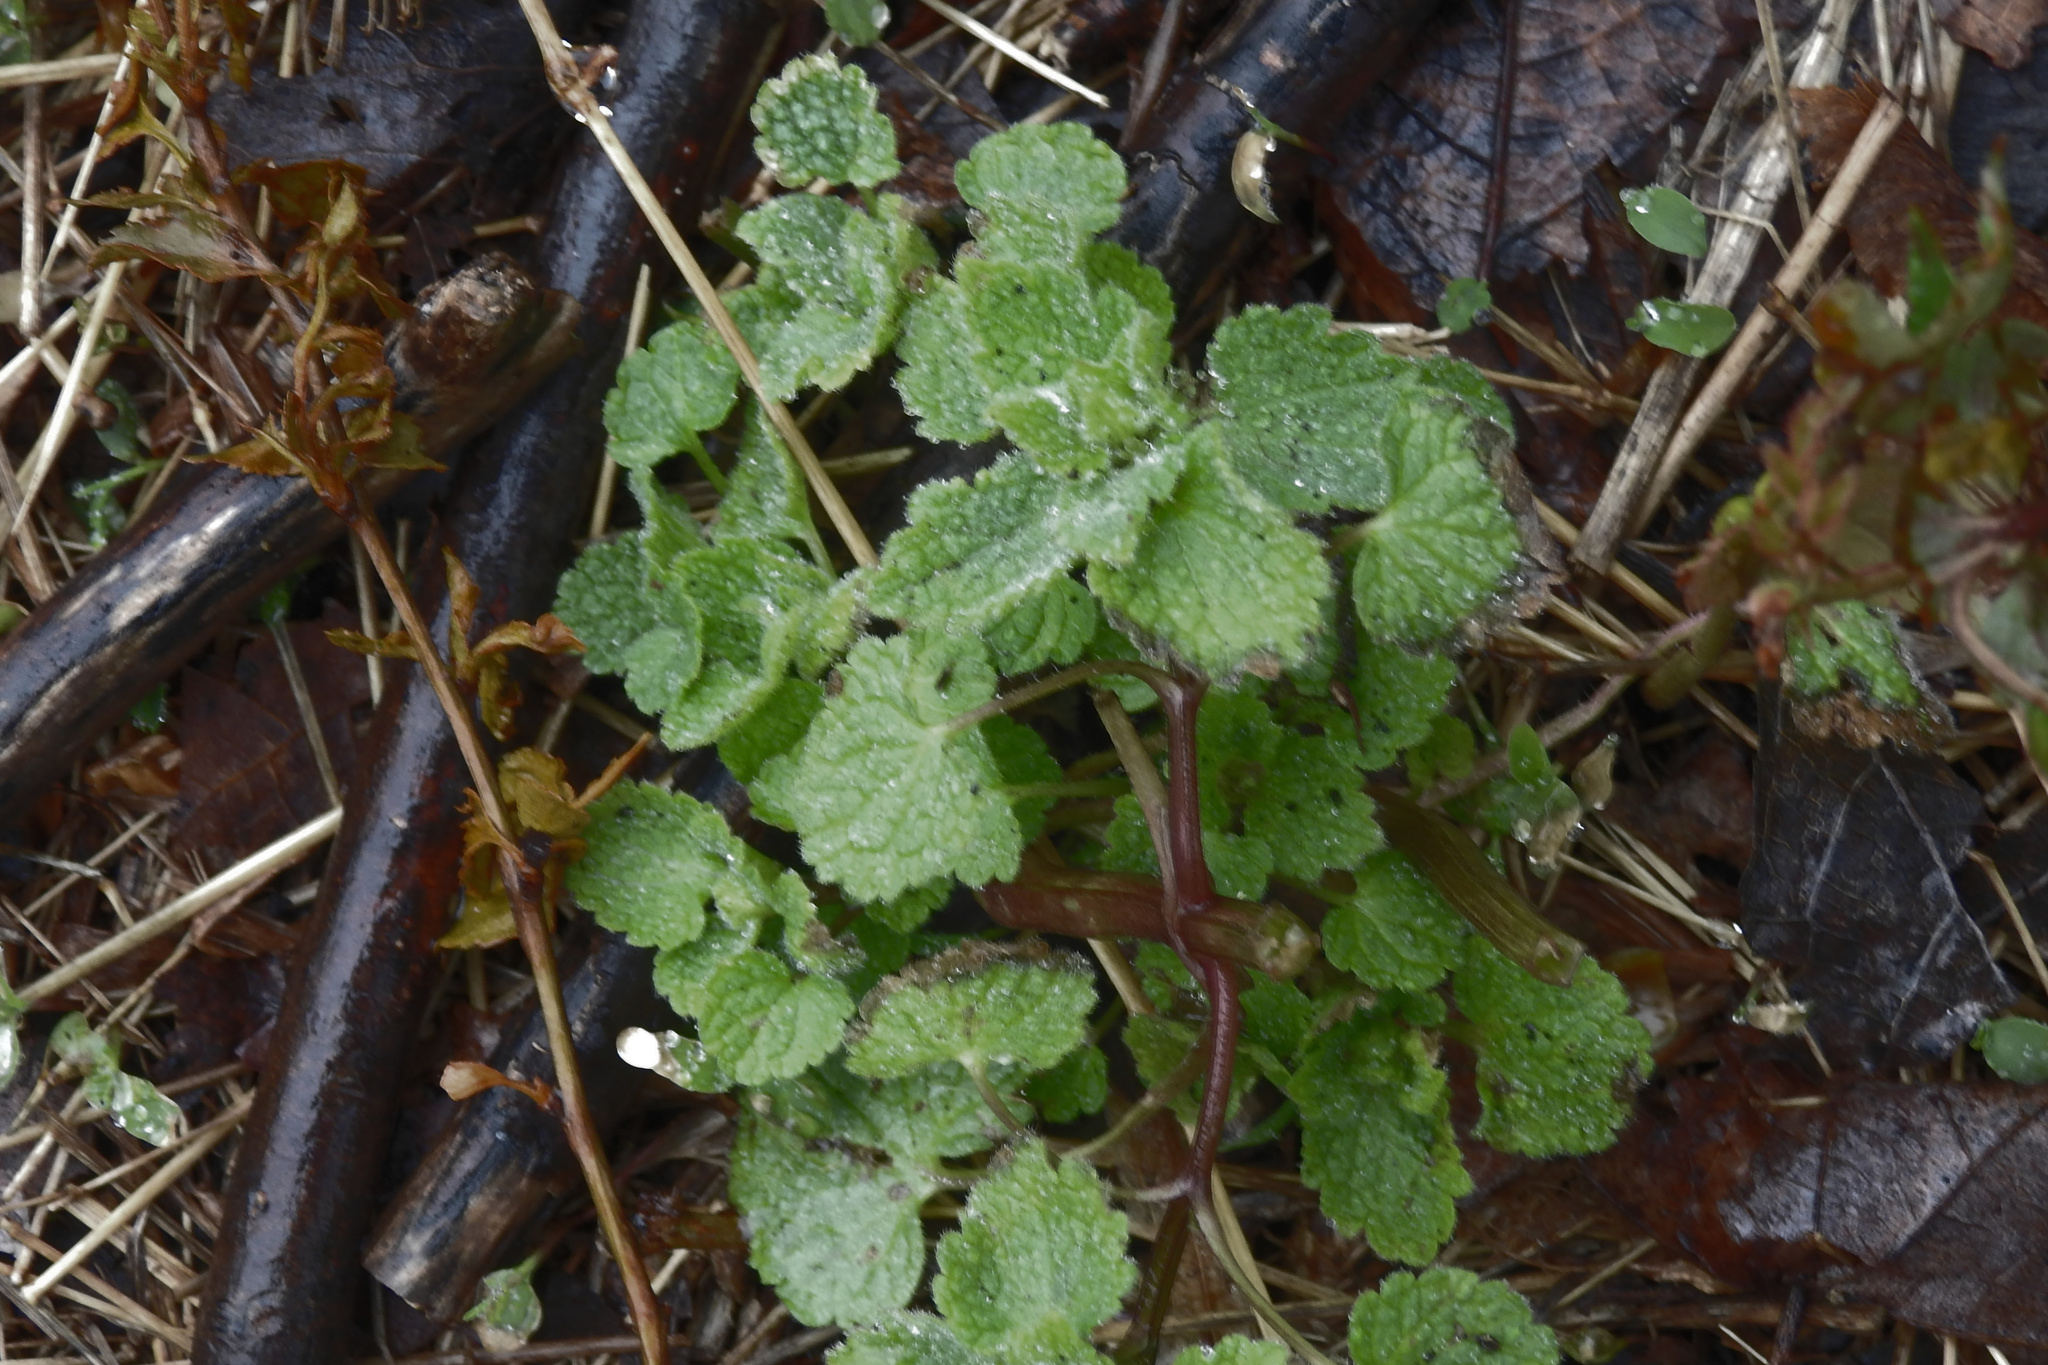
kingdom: Plantae
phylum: Tracheophyta
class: Magnoliopsida
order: Lamiales
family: Lamiaceae
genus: Lamium
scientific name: Lamium purpureum
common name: Red dead-nettle
